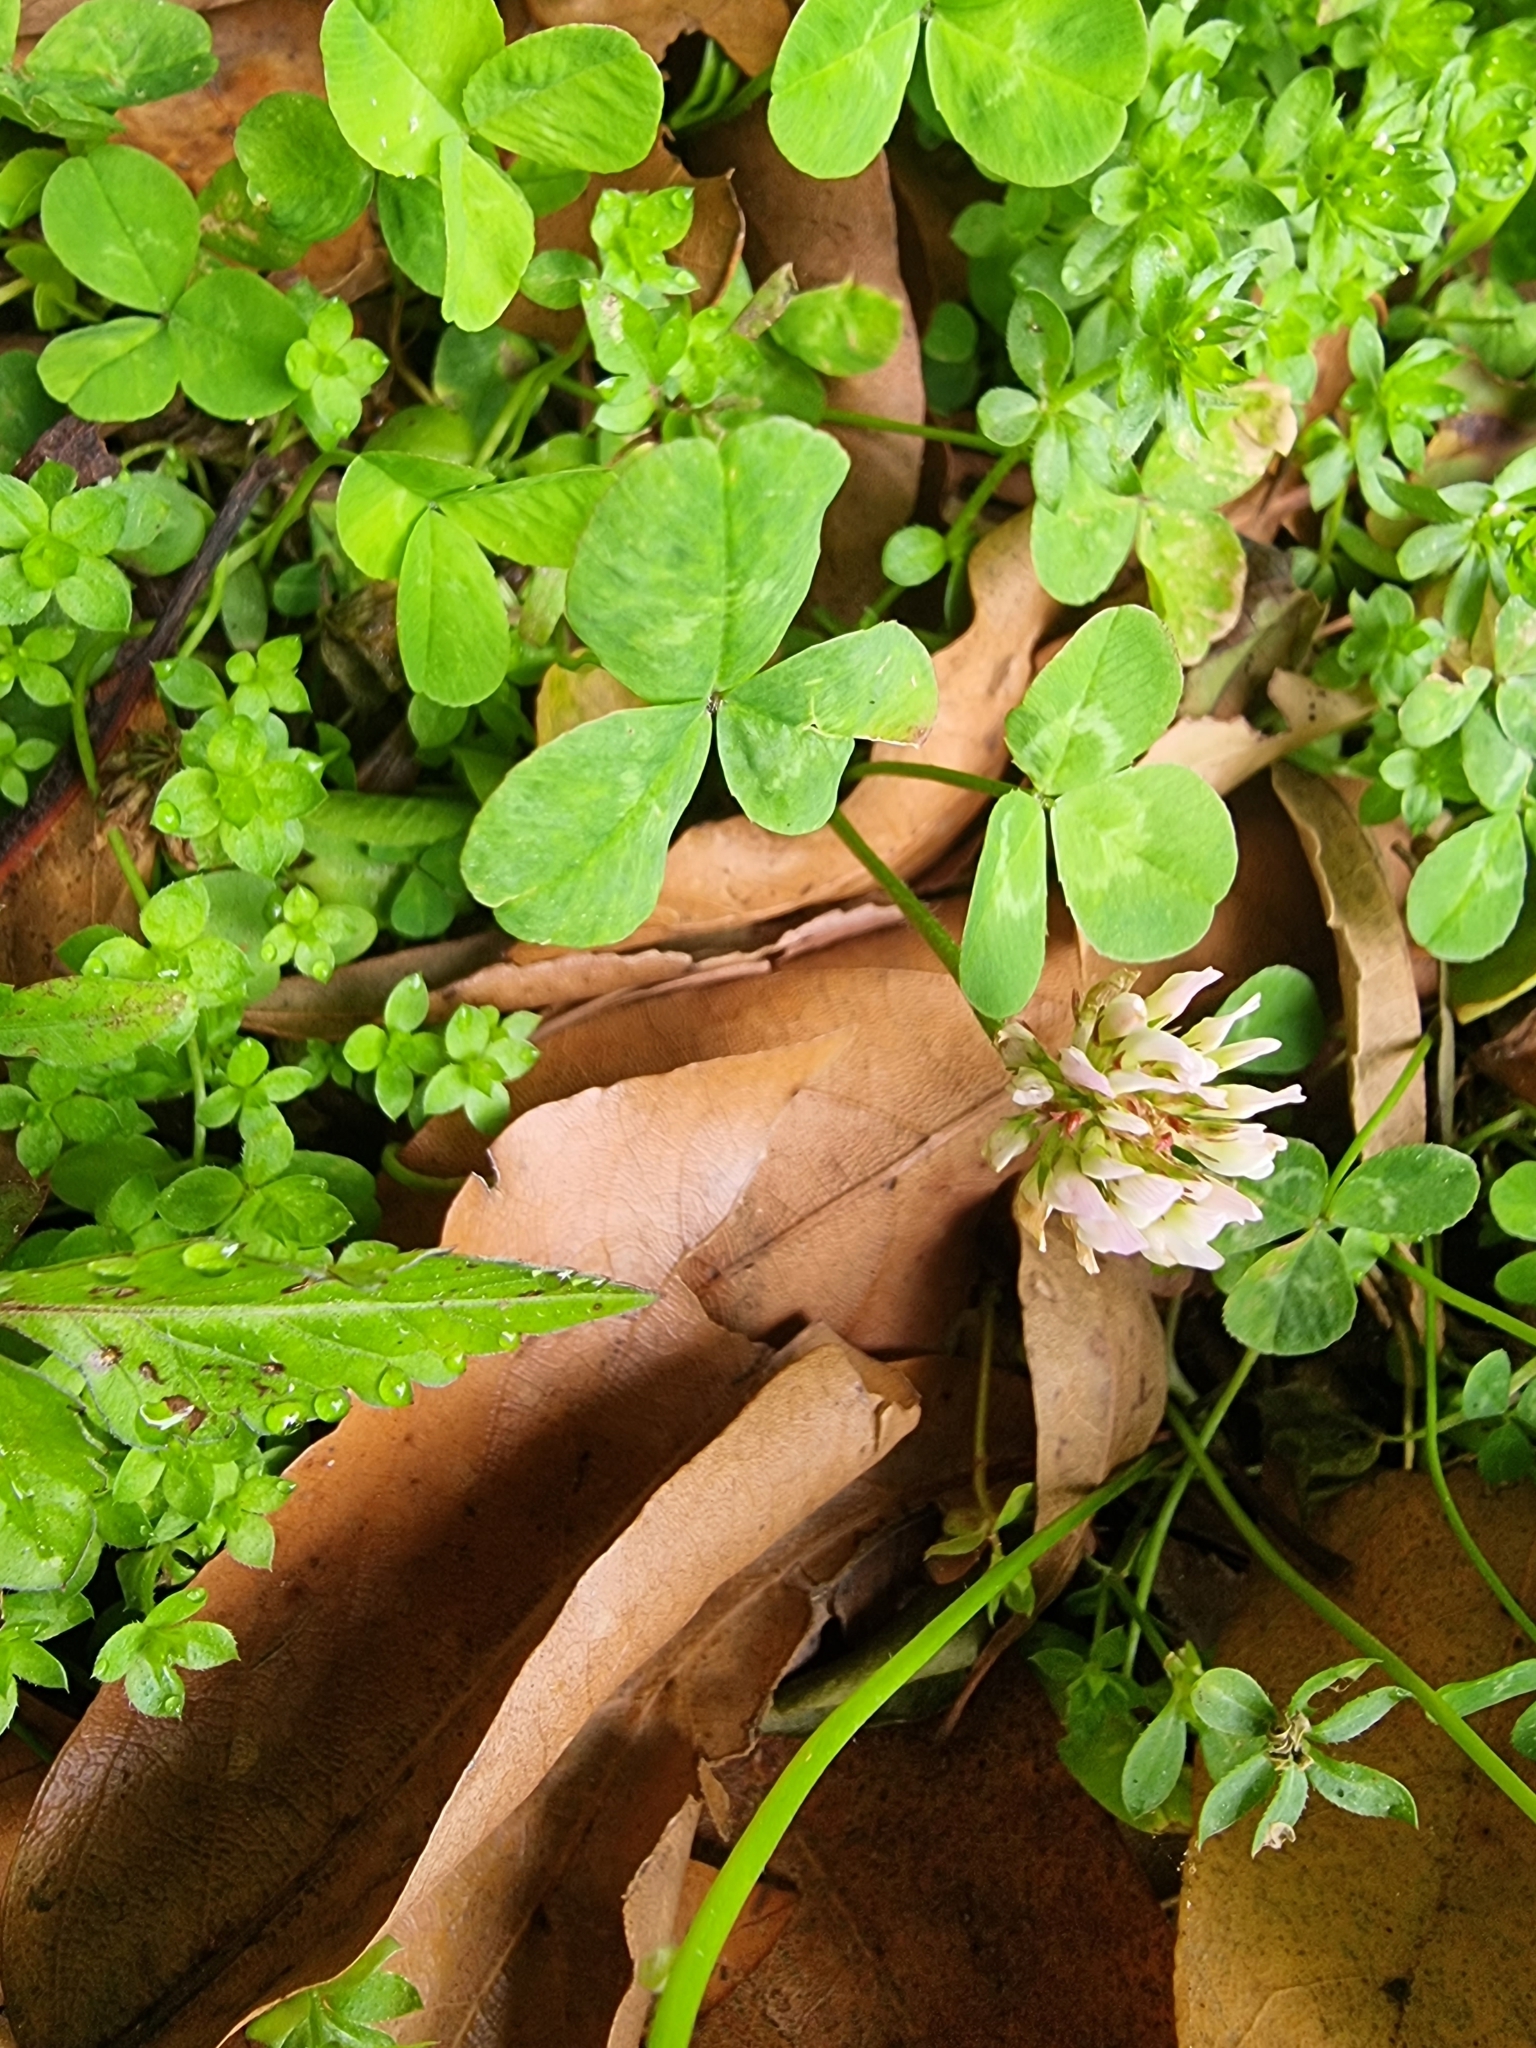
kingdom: Plantae
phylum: Tracheophyta
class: Magnoliopsida
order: Fabales
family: Fabaceae
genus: Trifolium
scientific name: Trifolium repens
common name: White clover
